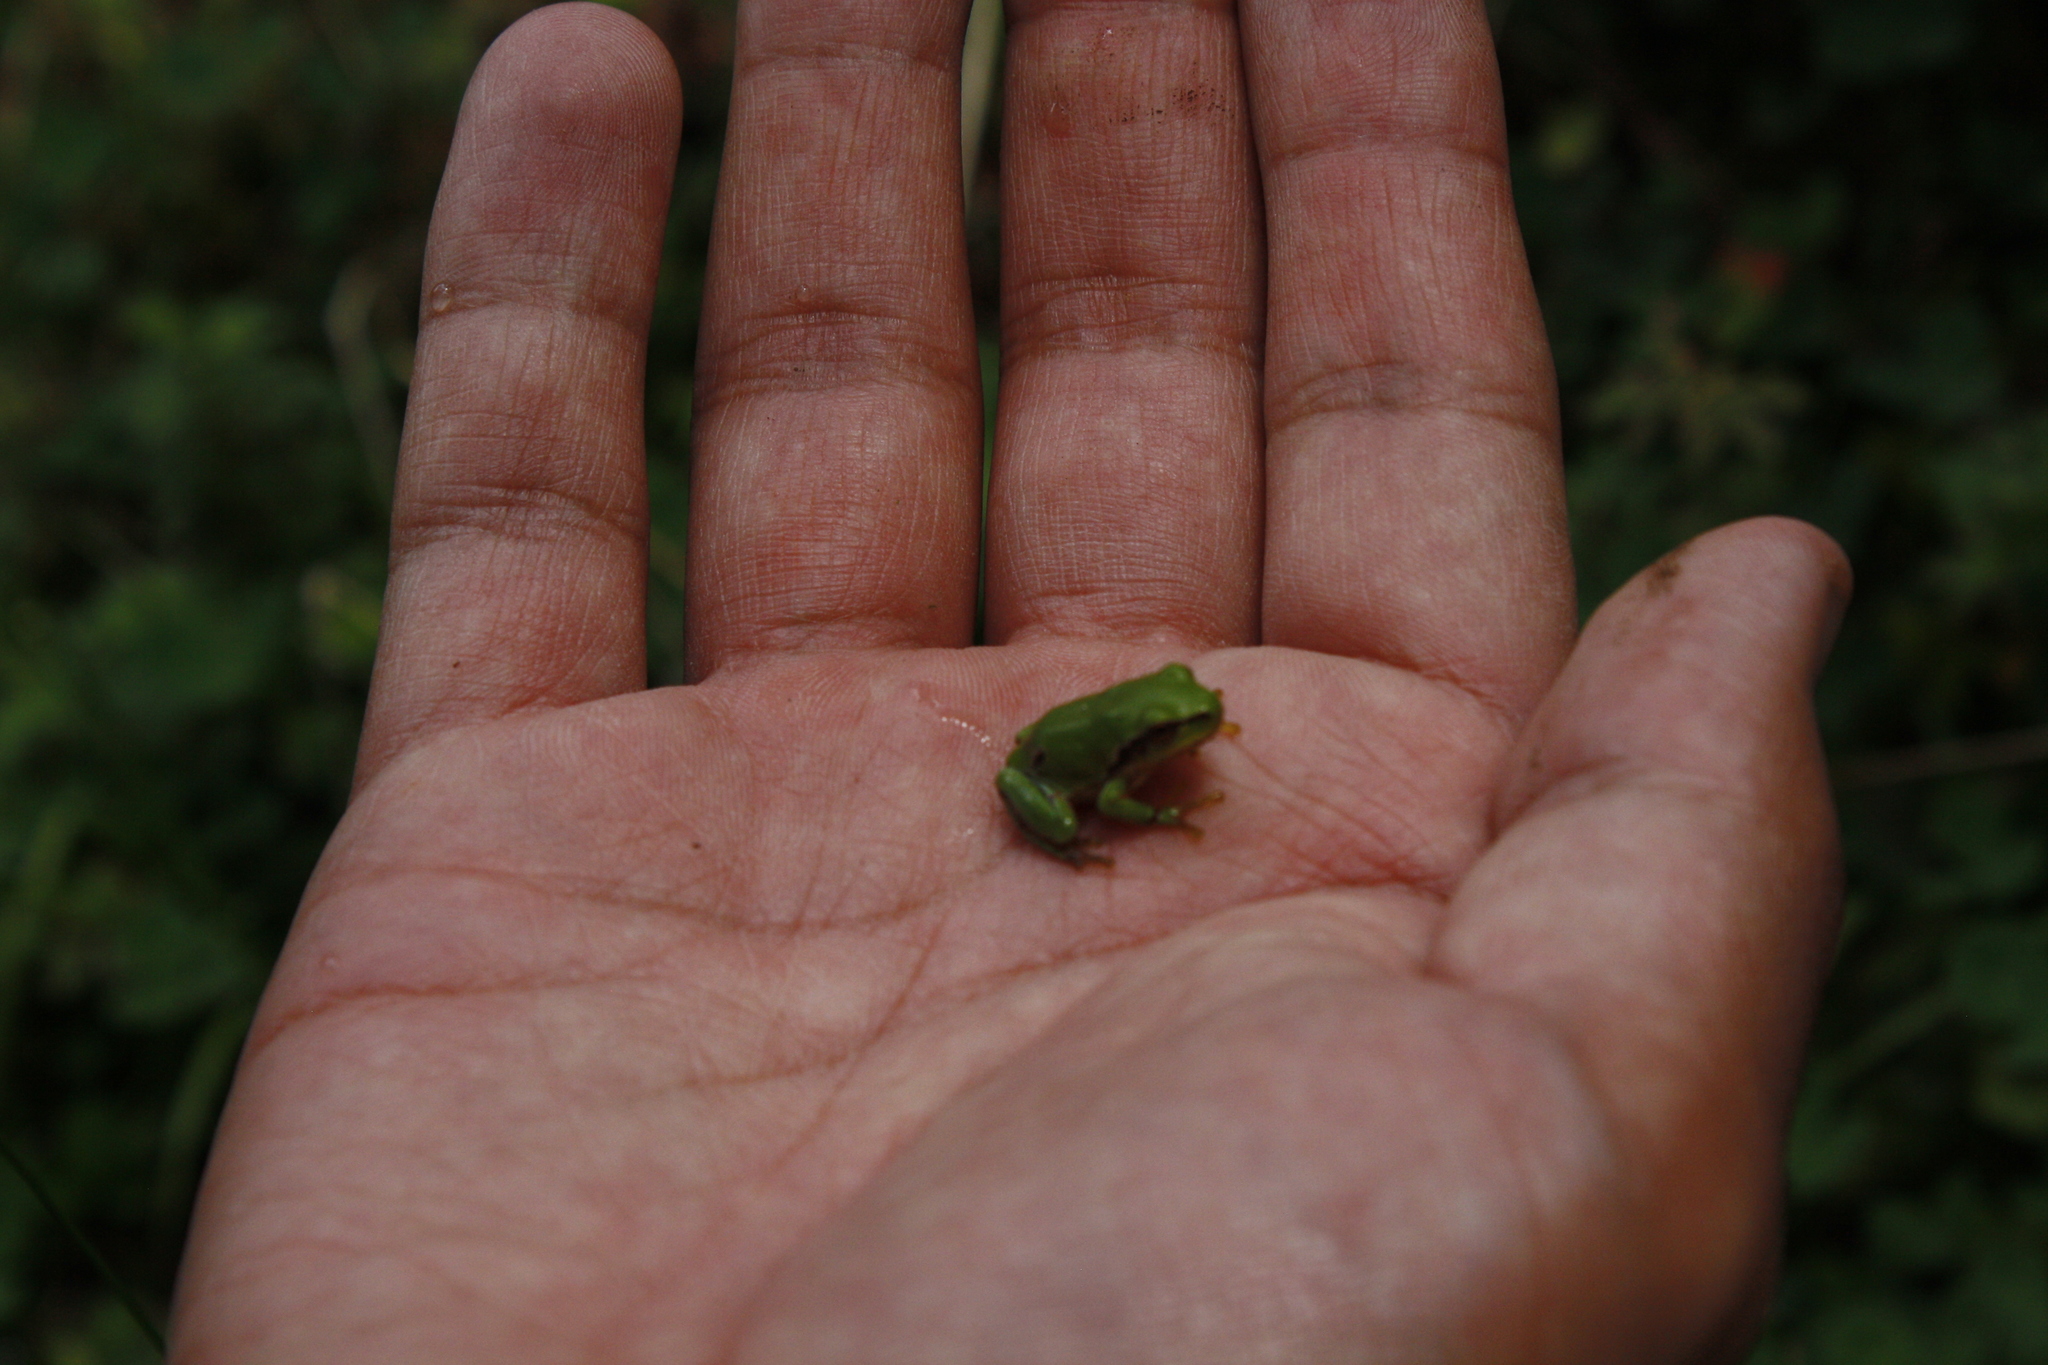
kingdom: Animalia
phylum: Chordata
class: Amphibia
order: Anura
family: Hylidae
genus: Dryophytes
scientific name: Dryophytes eximius
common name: Mountain treefrog
